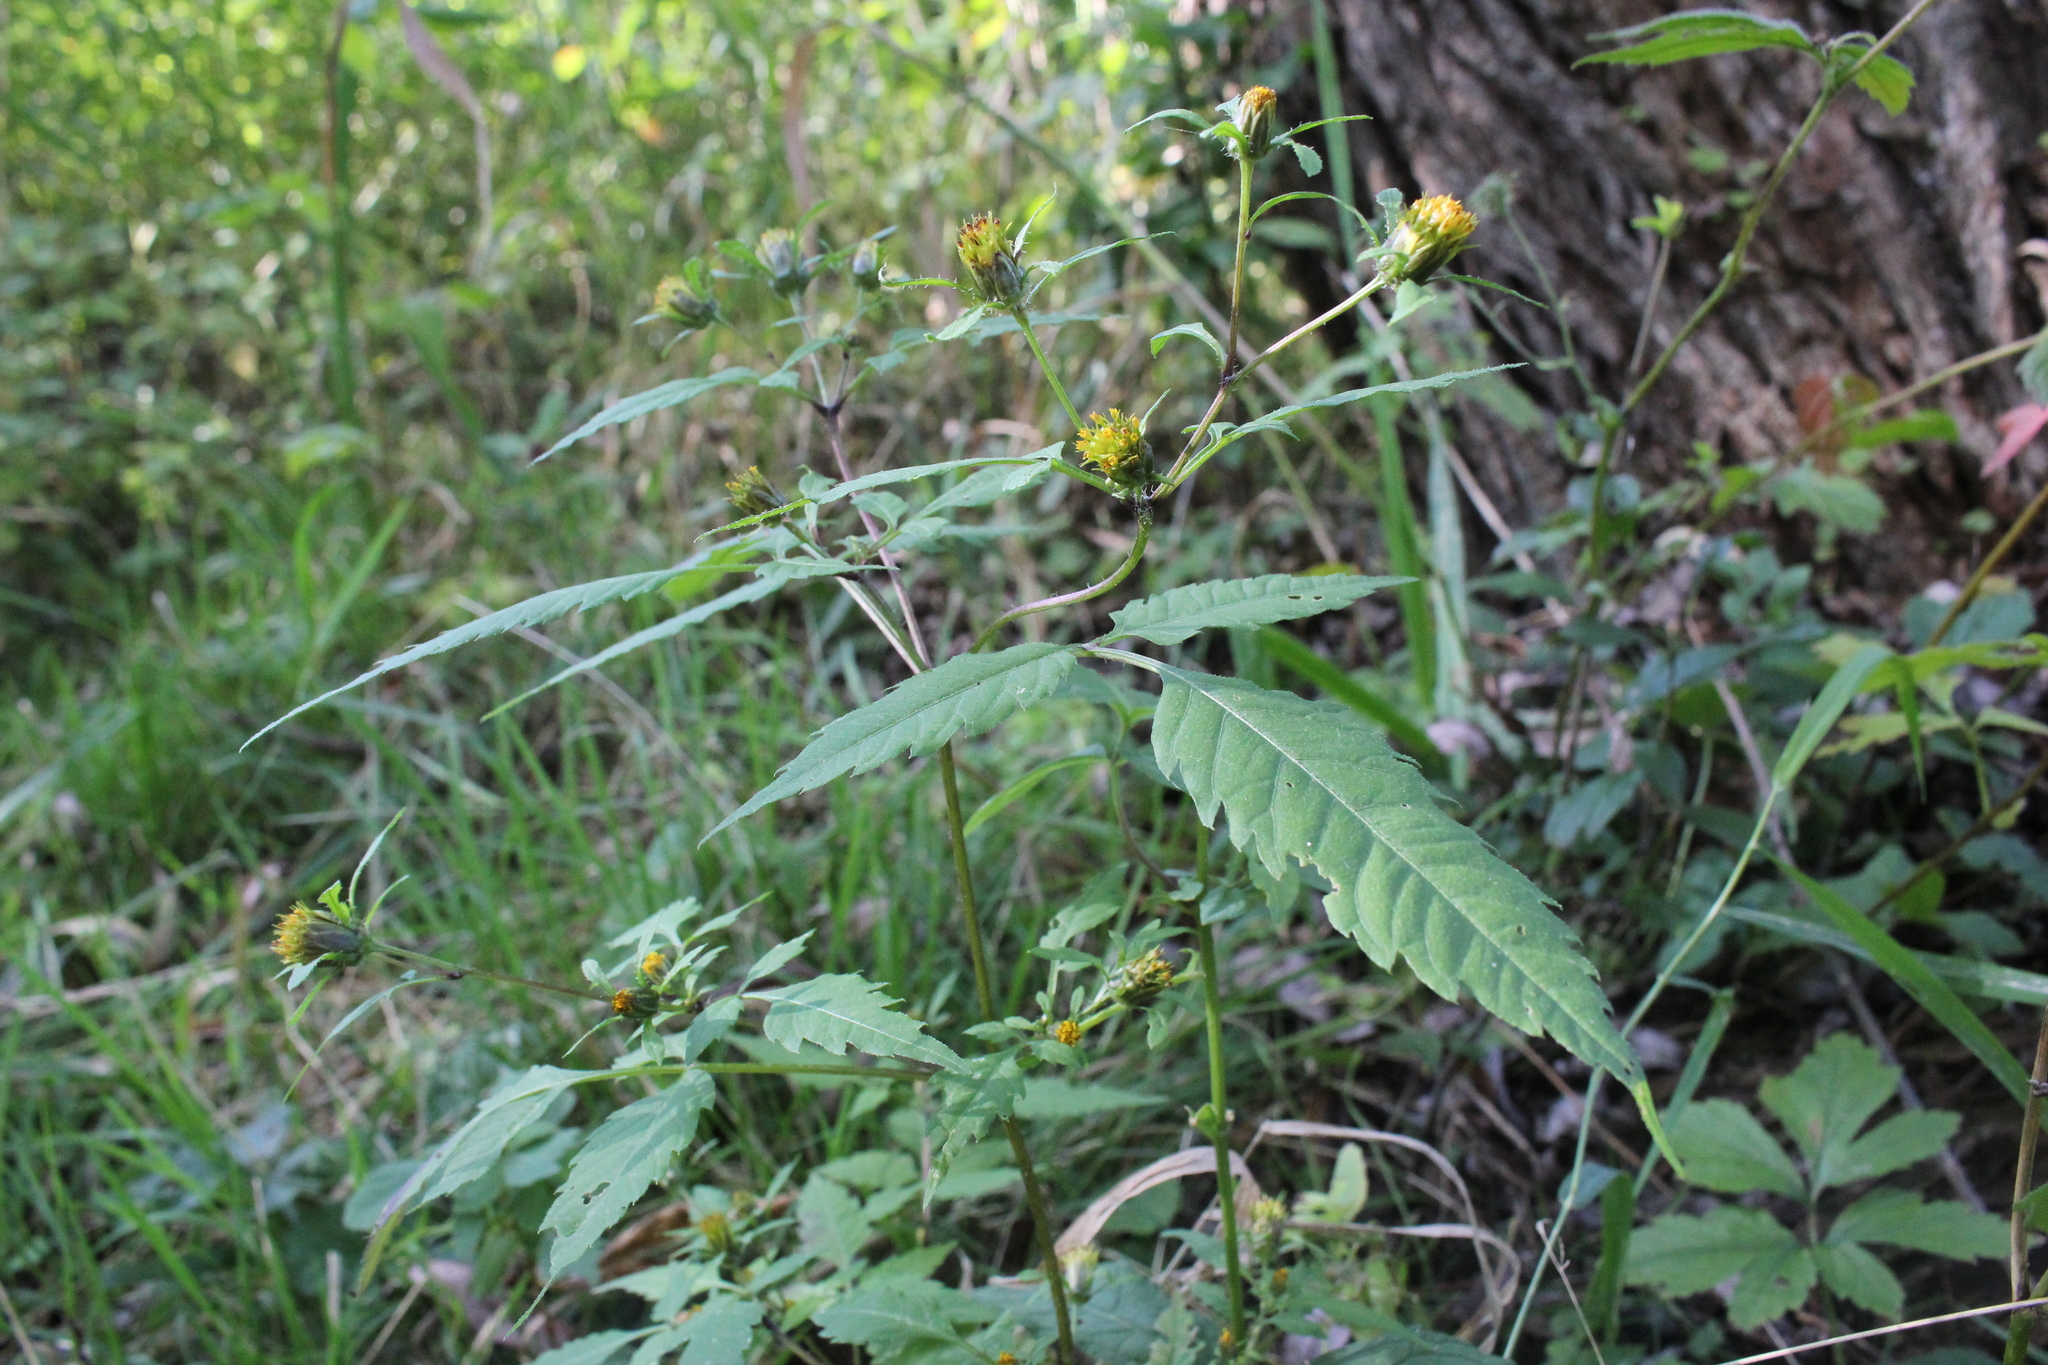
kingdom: Plantae
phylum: Tracheophyta
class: Magnoliopsida
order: Asterales
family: Asteraceae
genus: Bidens
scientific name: Bidens frondosa
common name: Beggarticks
